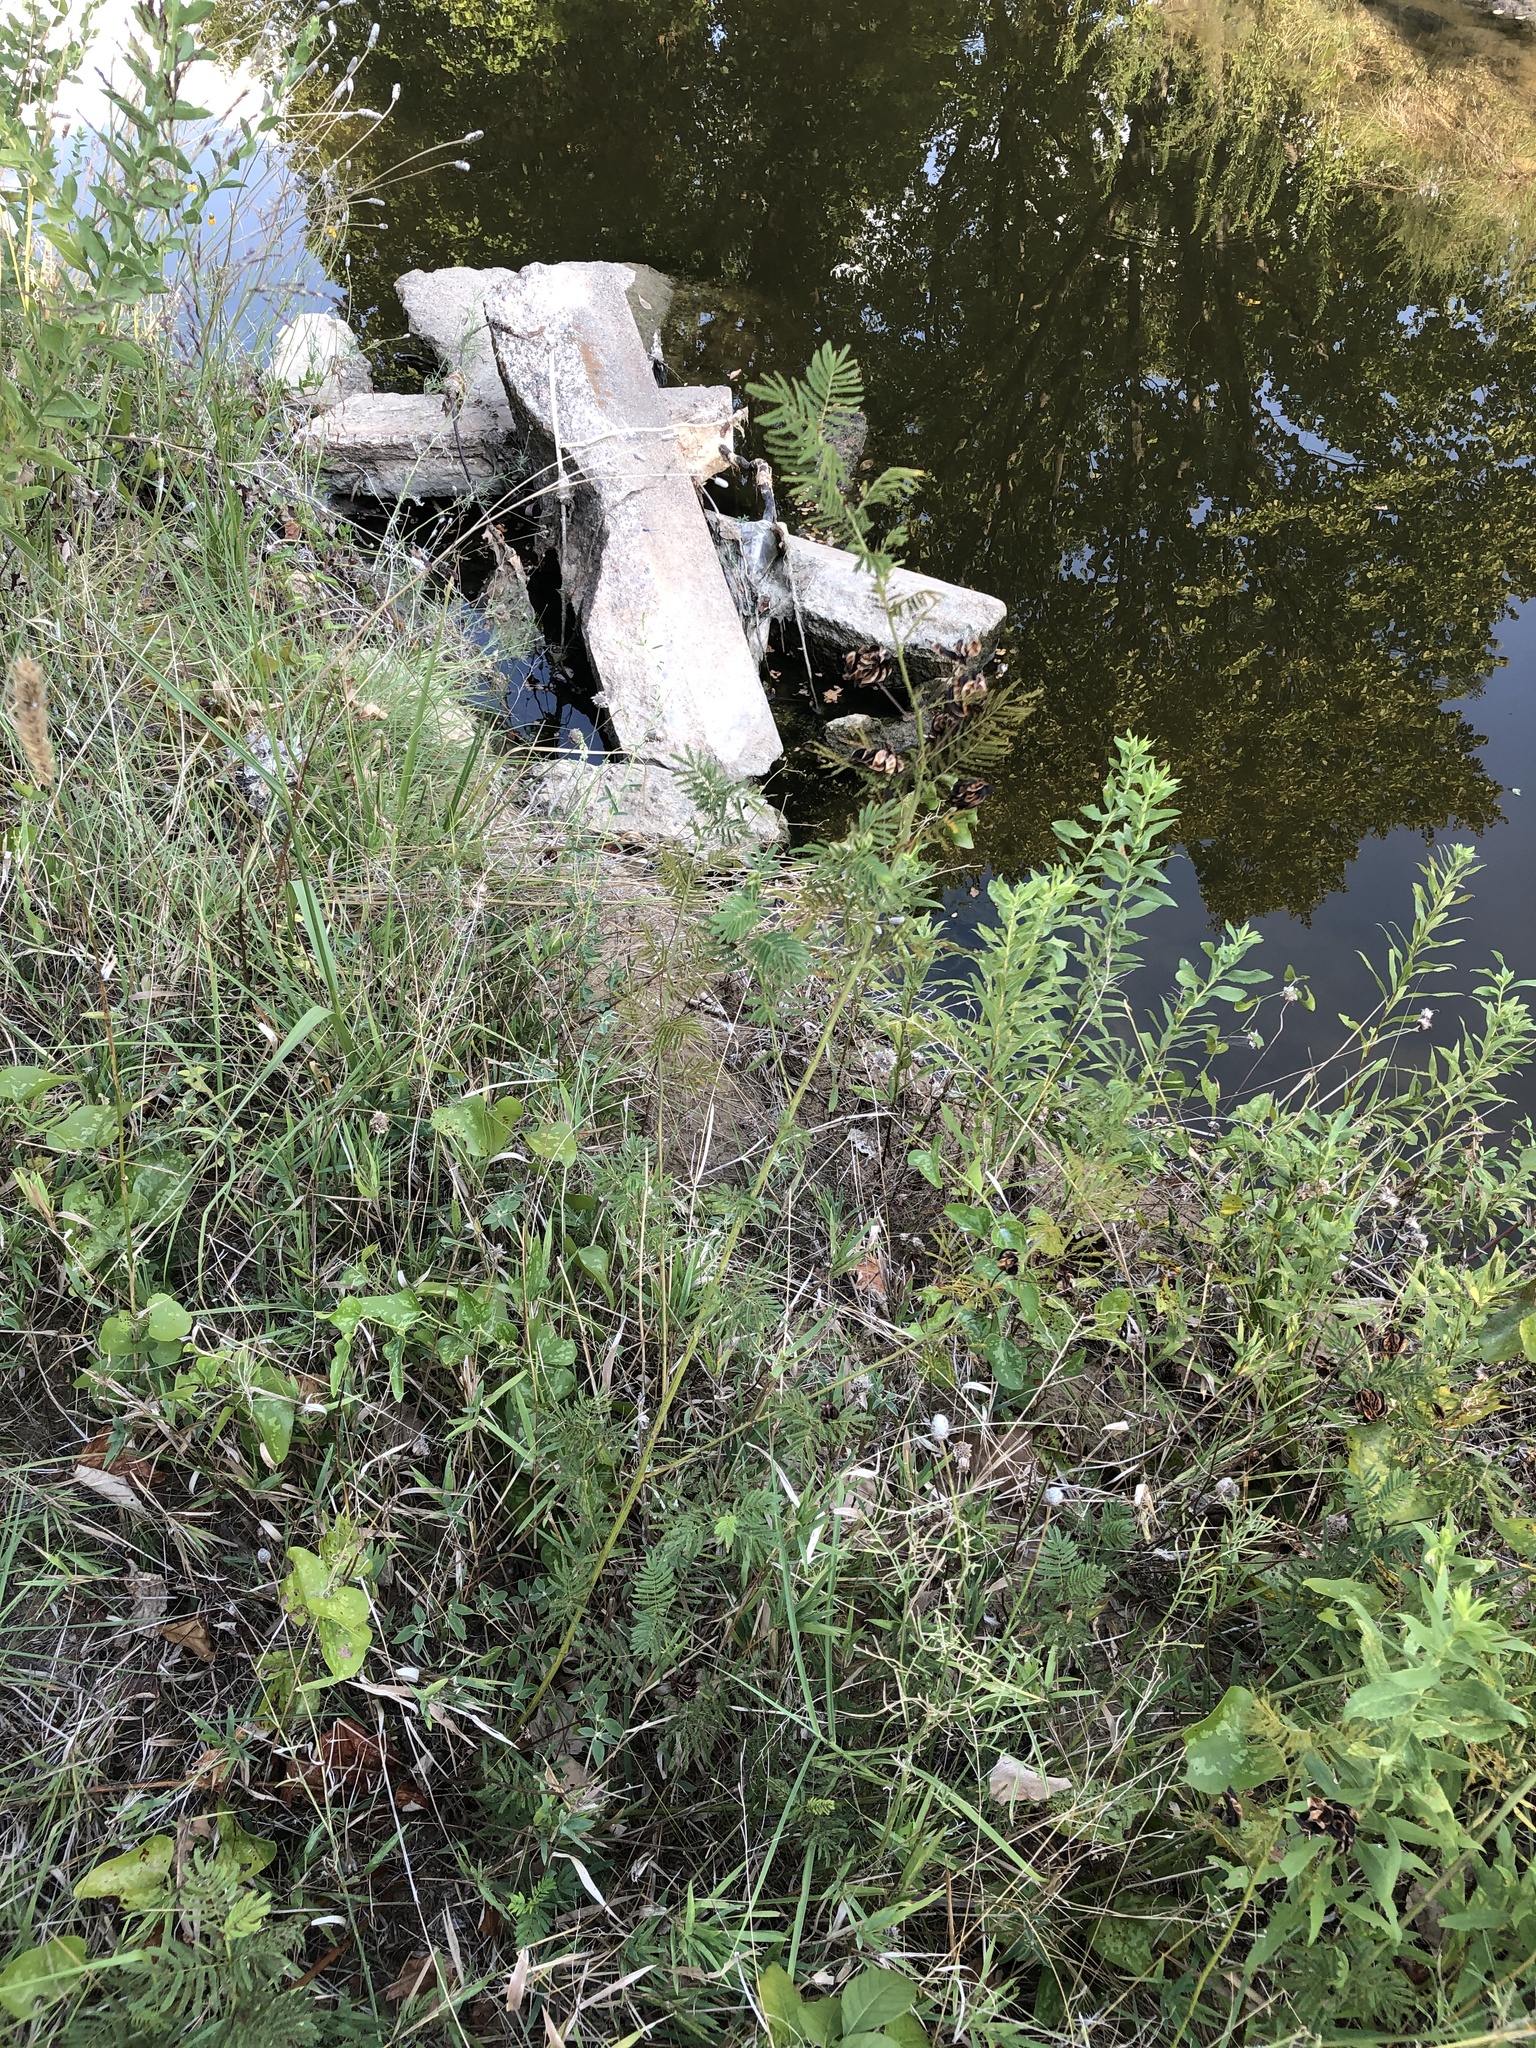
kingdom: Plantae
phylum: Tracheophyta
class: Magnoliopsida
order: Fabales
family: Fabaceae
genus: Desmanthus
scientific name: Desmanthus illinoensis
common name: Illinois bundle-flower
